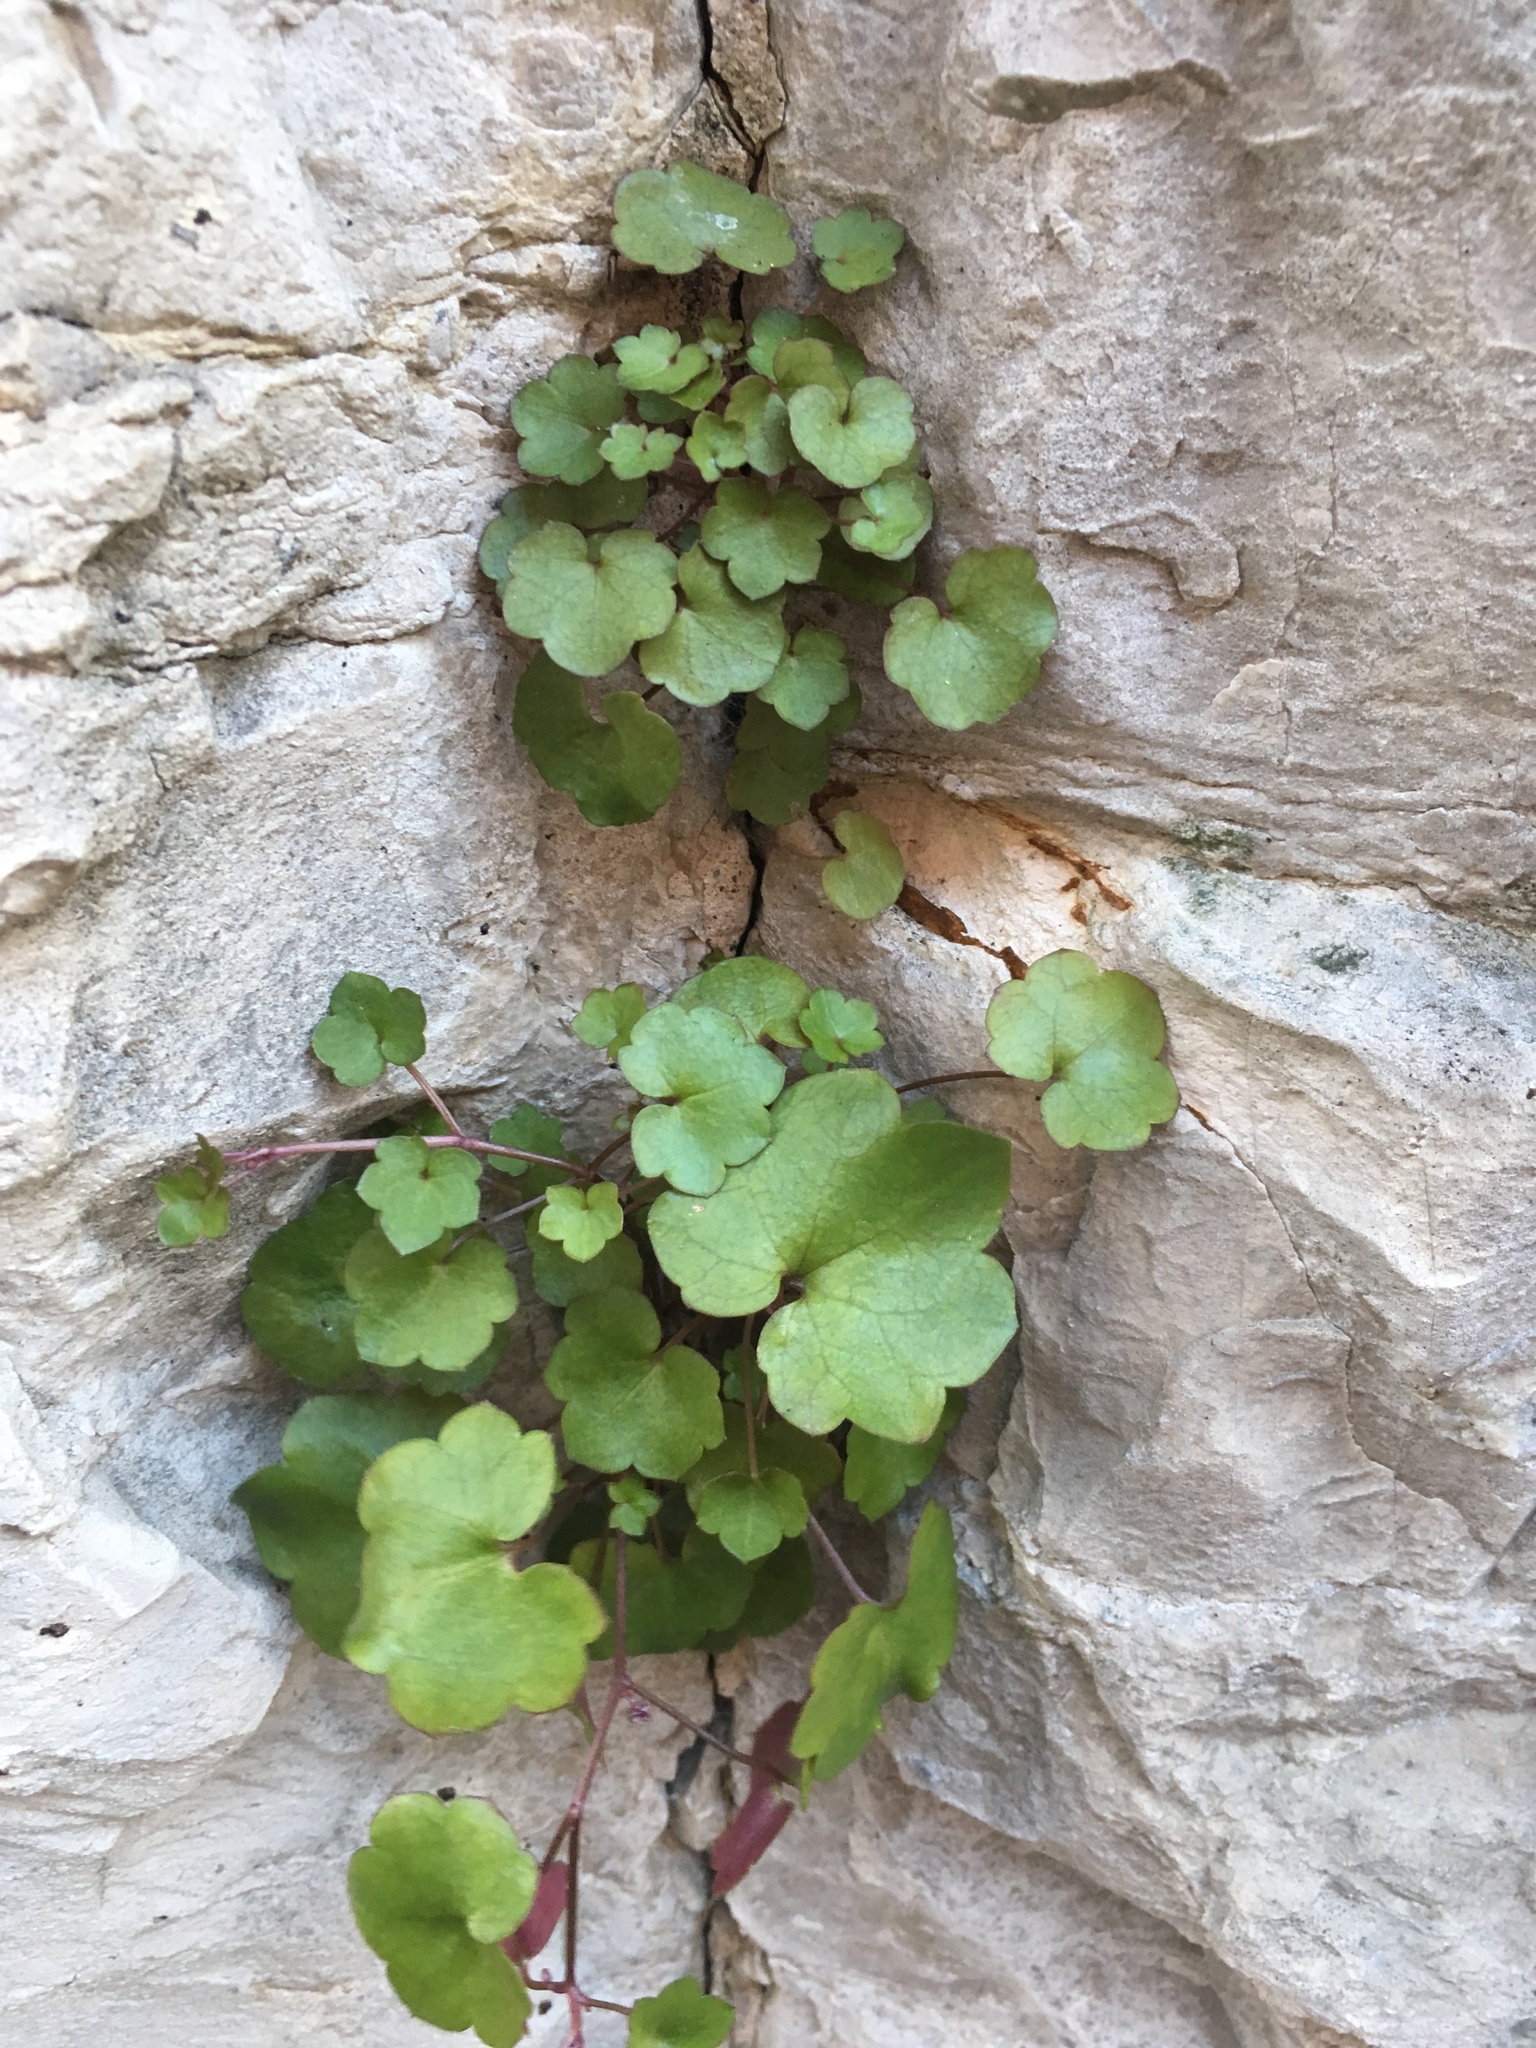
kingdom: Plantae
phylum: Tracheophyta
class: Magnoliopsida
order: Lamiales
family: Plantaginaceae
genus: Cymbalaria
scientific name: Cymbalaria muralis
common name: Ivy-leaved toadflax
